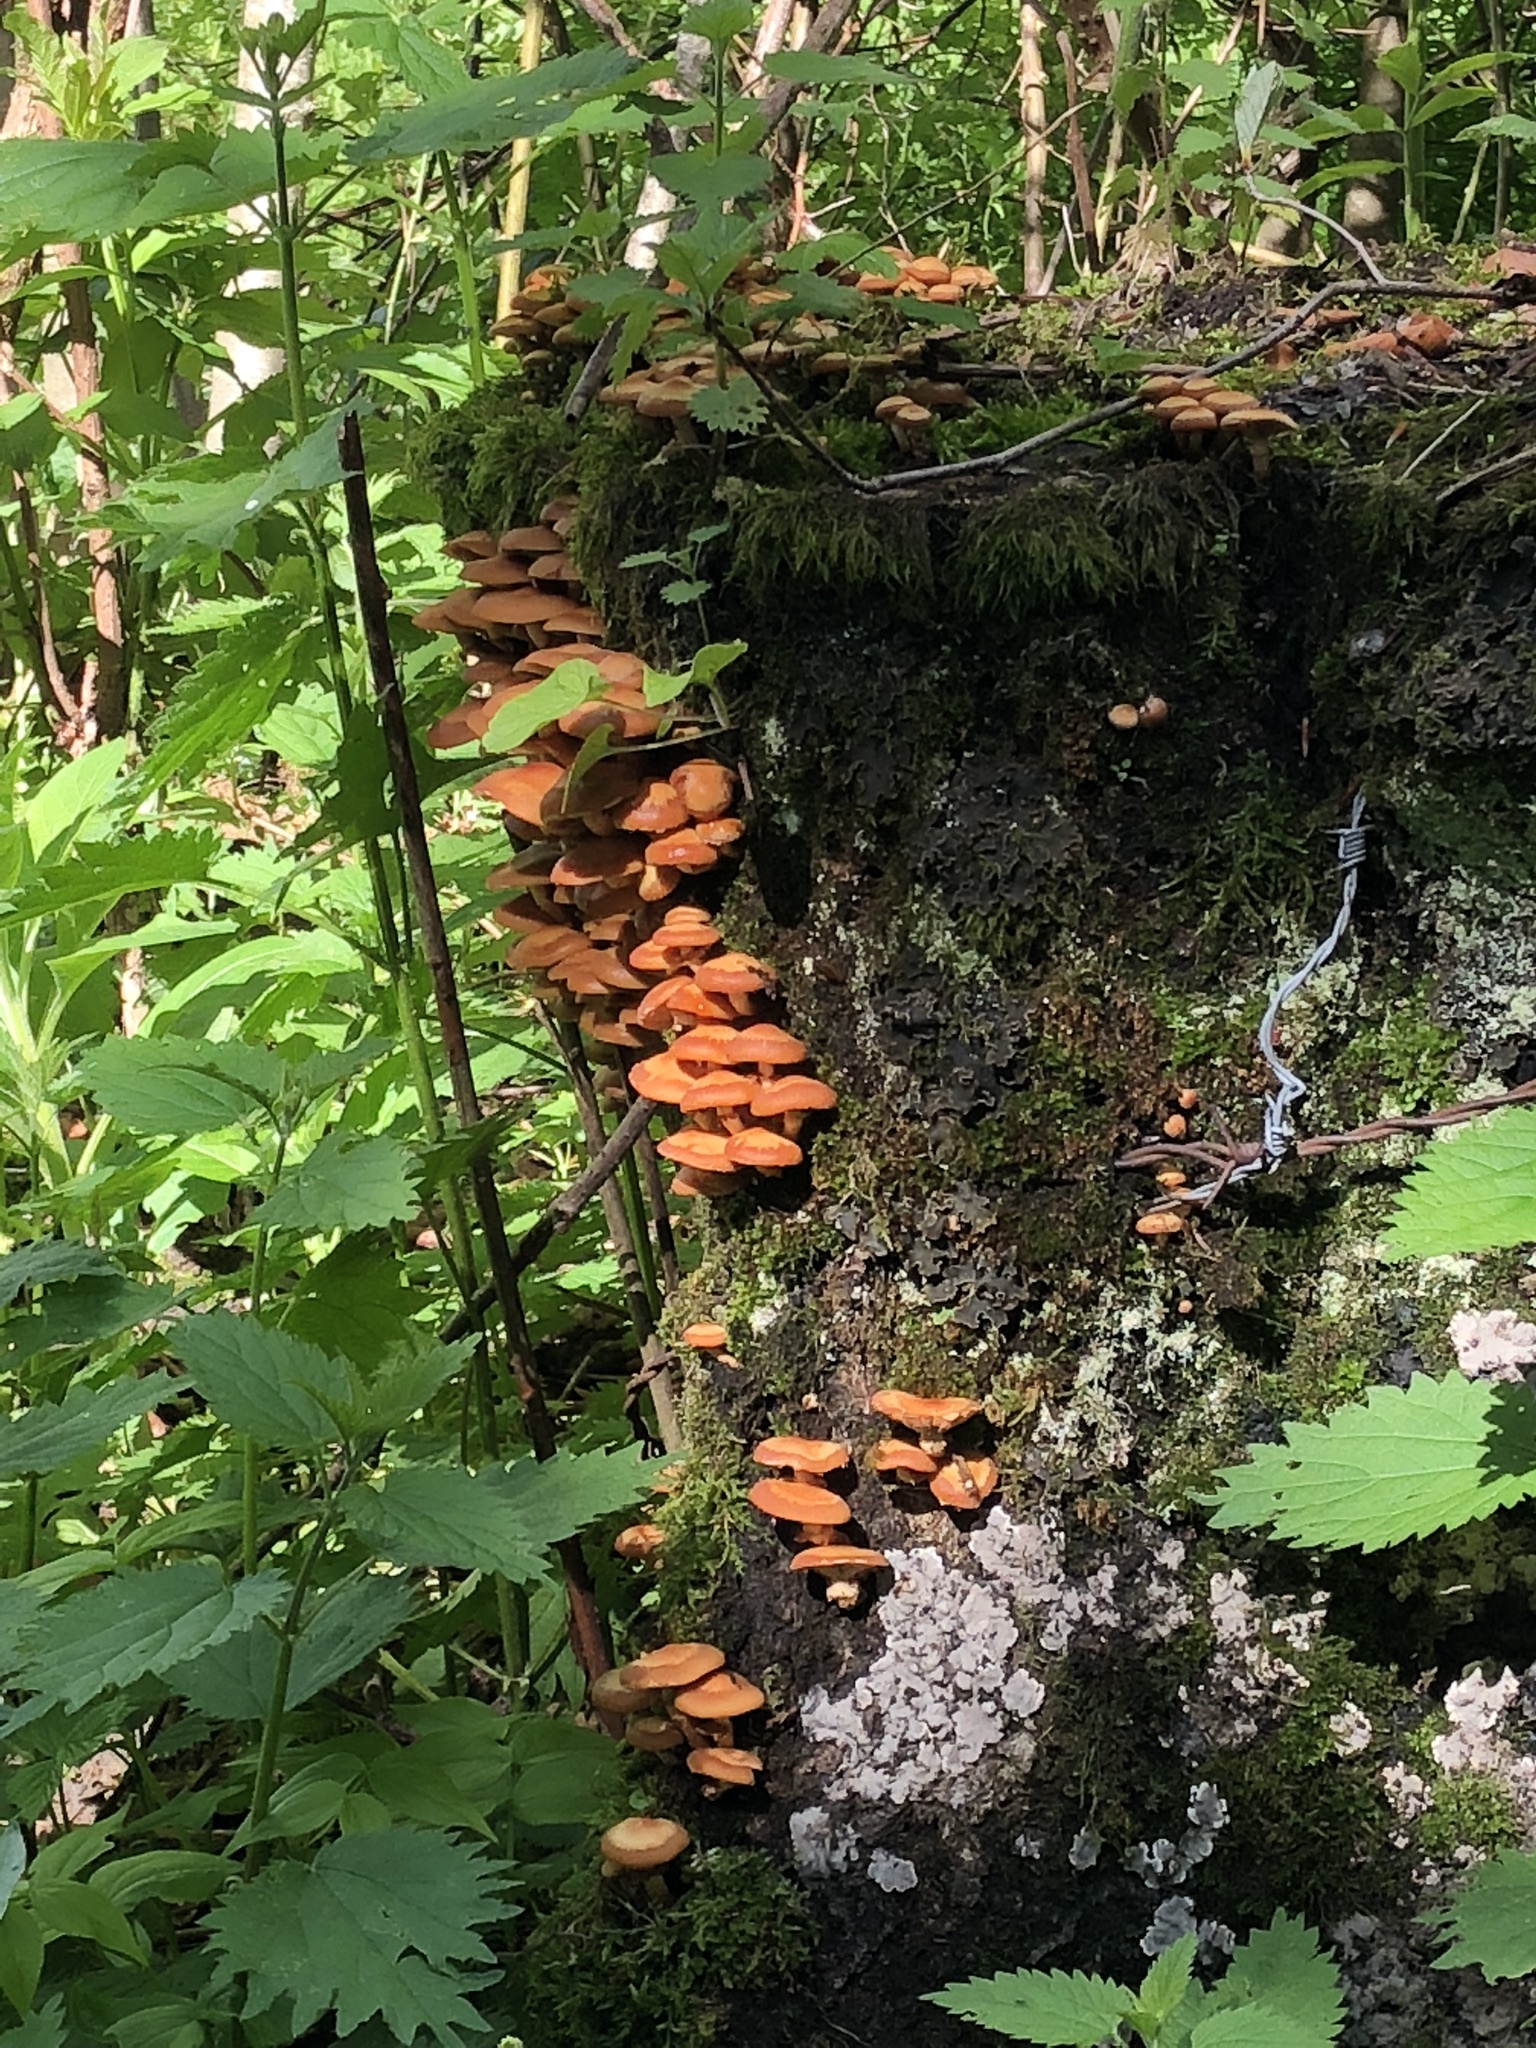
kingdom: Fungi
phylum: Basidiomycota
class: Agaricomycetes
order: Agaricales
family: Strophariaceae
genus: Kuehneromyces
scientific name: Kuehneromyces mutabilis
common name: Sheathed woodtuft
